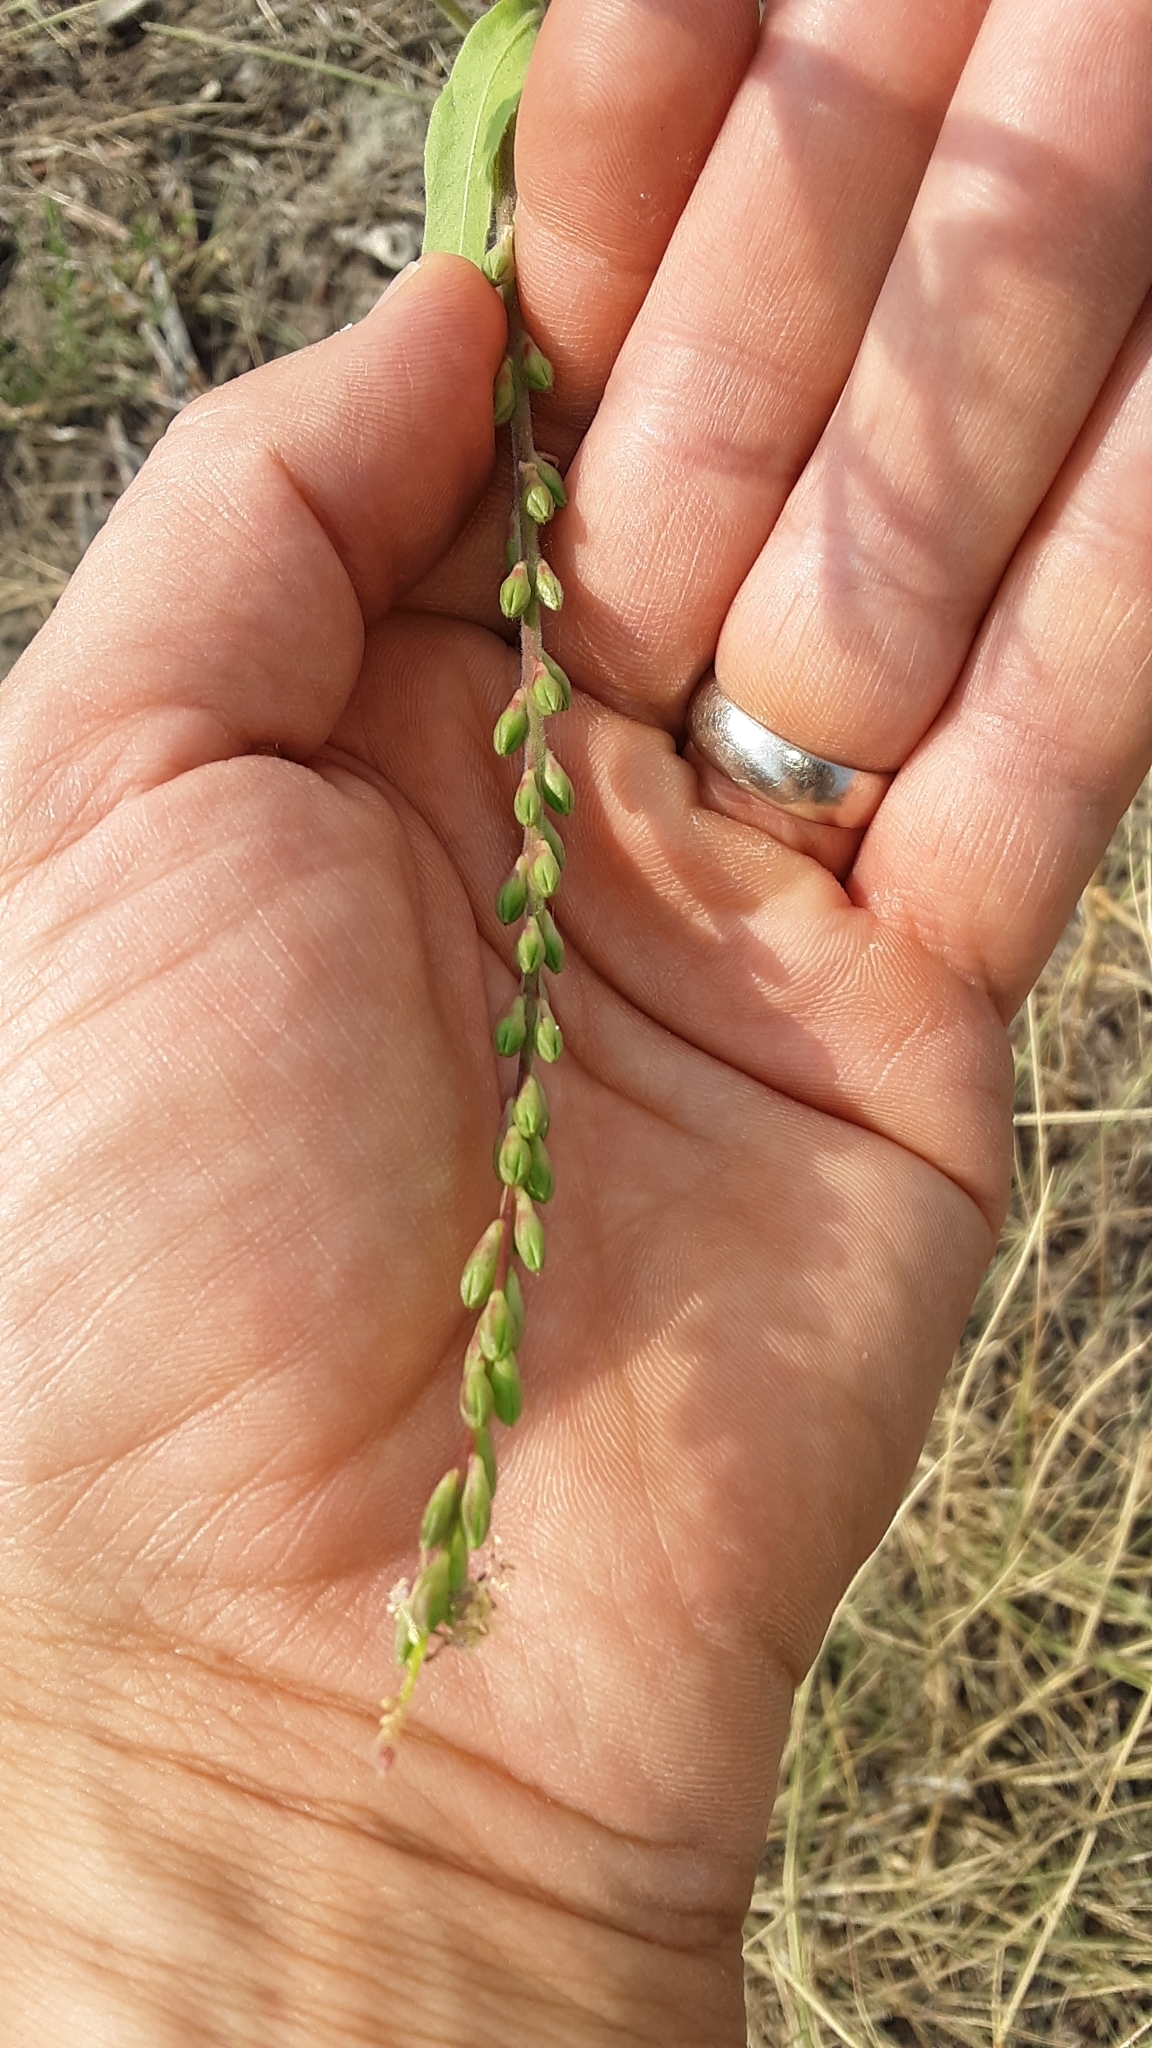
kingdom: Plantae
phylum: Tracheophyta
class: Magnoliopsida
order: Myrtales
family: Onagraceae
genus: Oenothera
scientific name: Oenothera curtiflora
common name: Velvetweed
